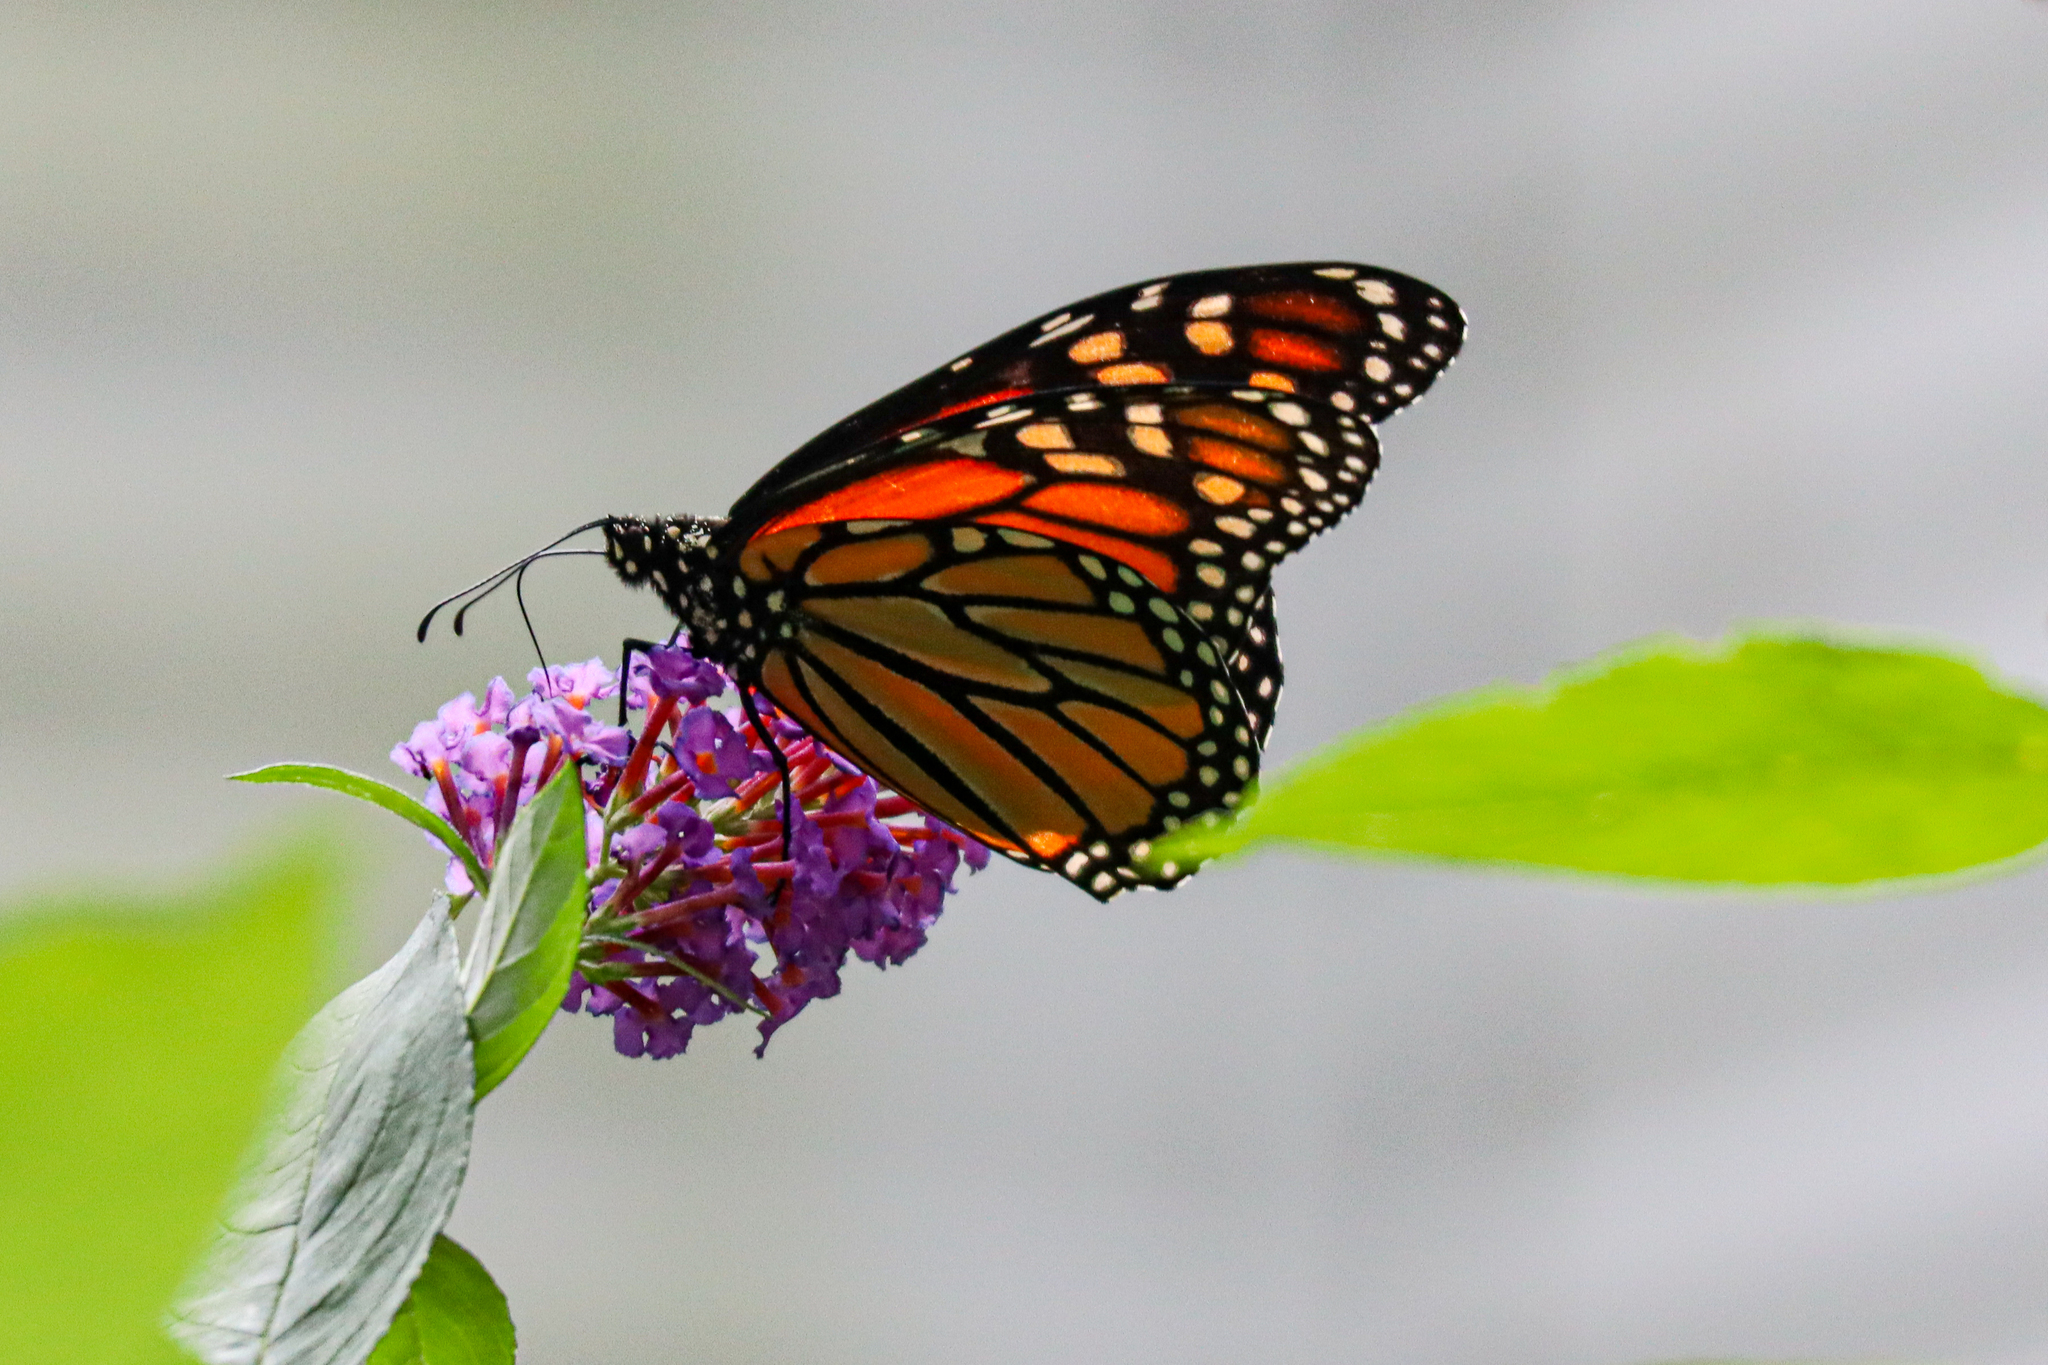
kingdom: Animalia
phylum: Arthropoda
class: Insecta
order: Lepidoptera
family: Nymphalidae
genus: Danaus
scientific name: Danaus plexippus
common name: Monarch
